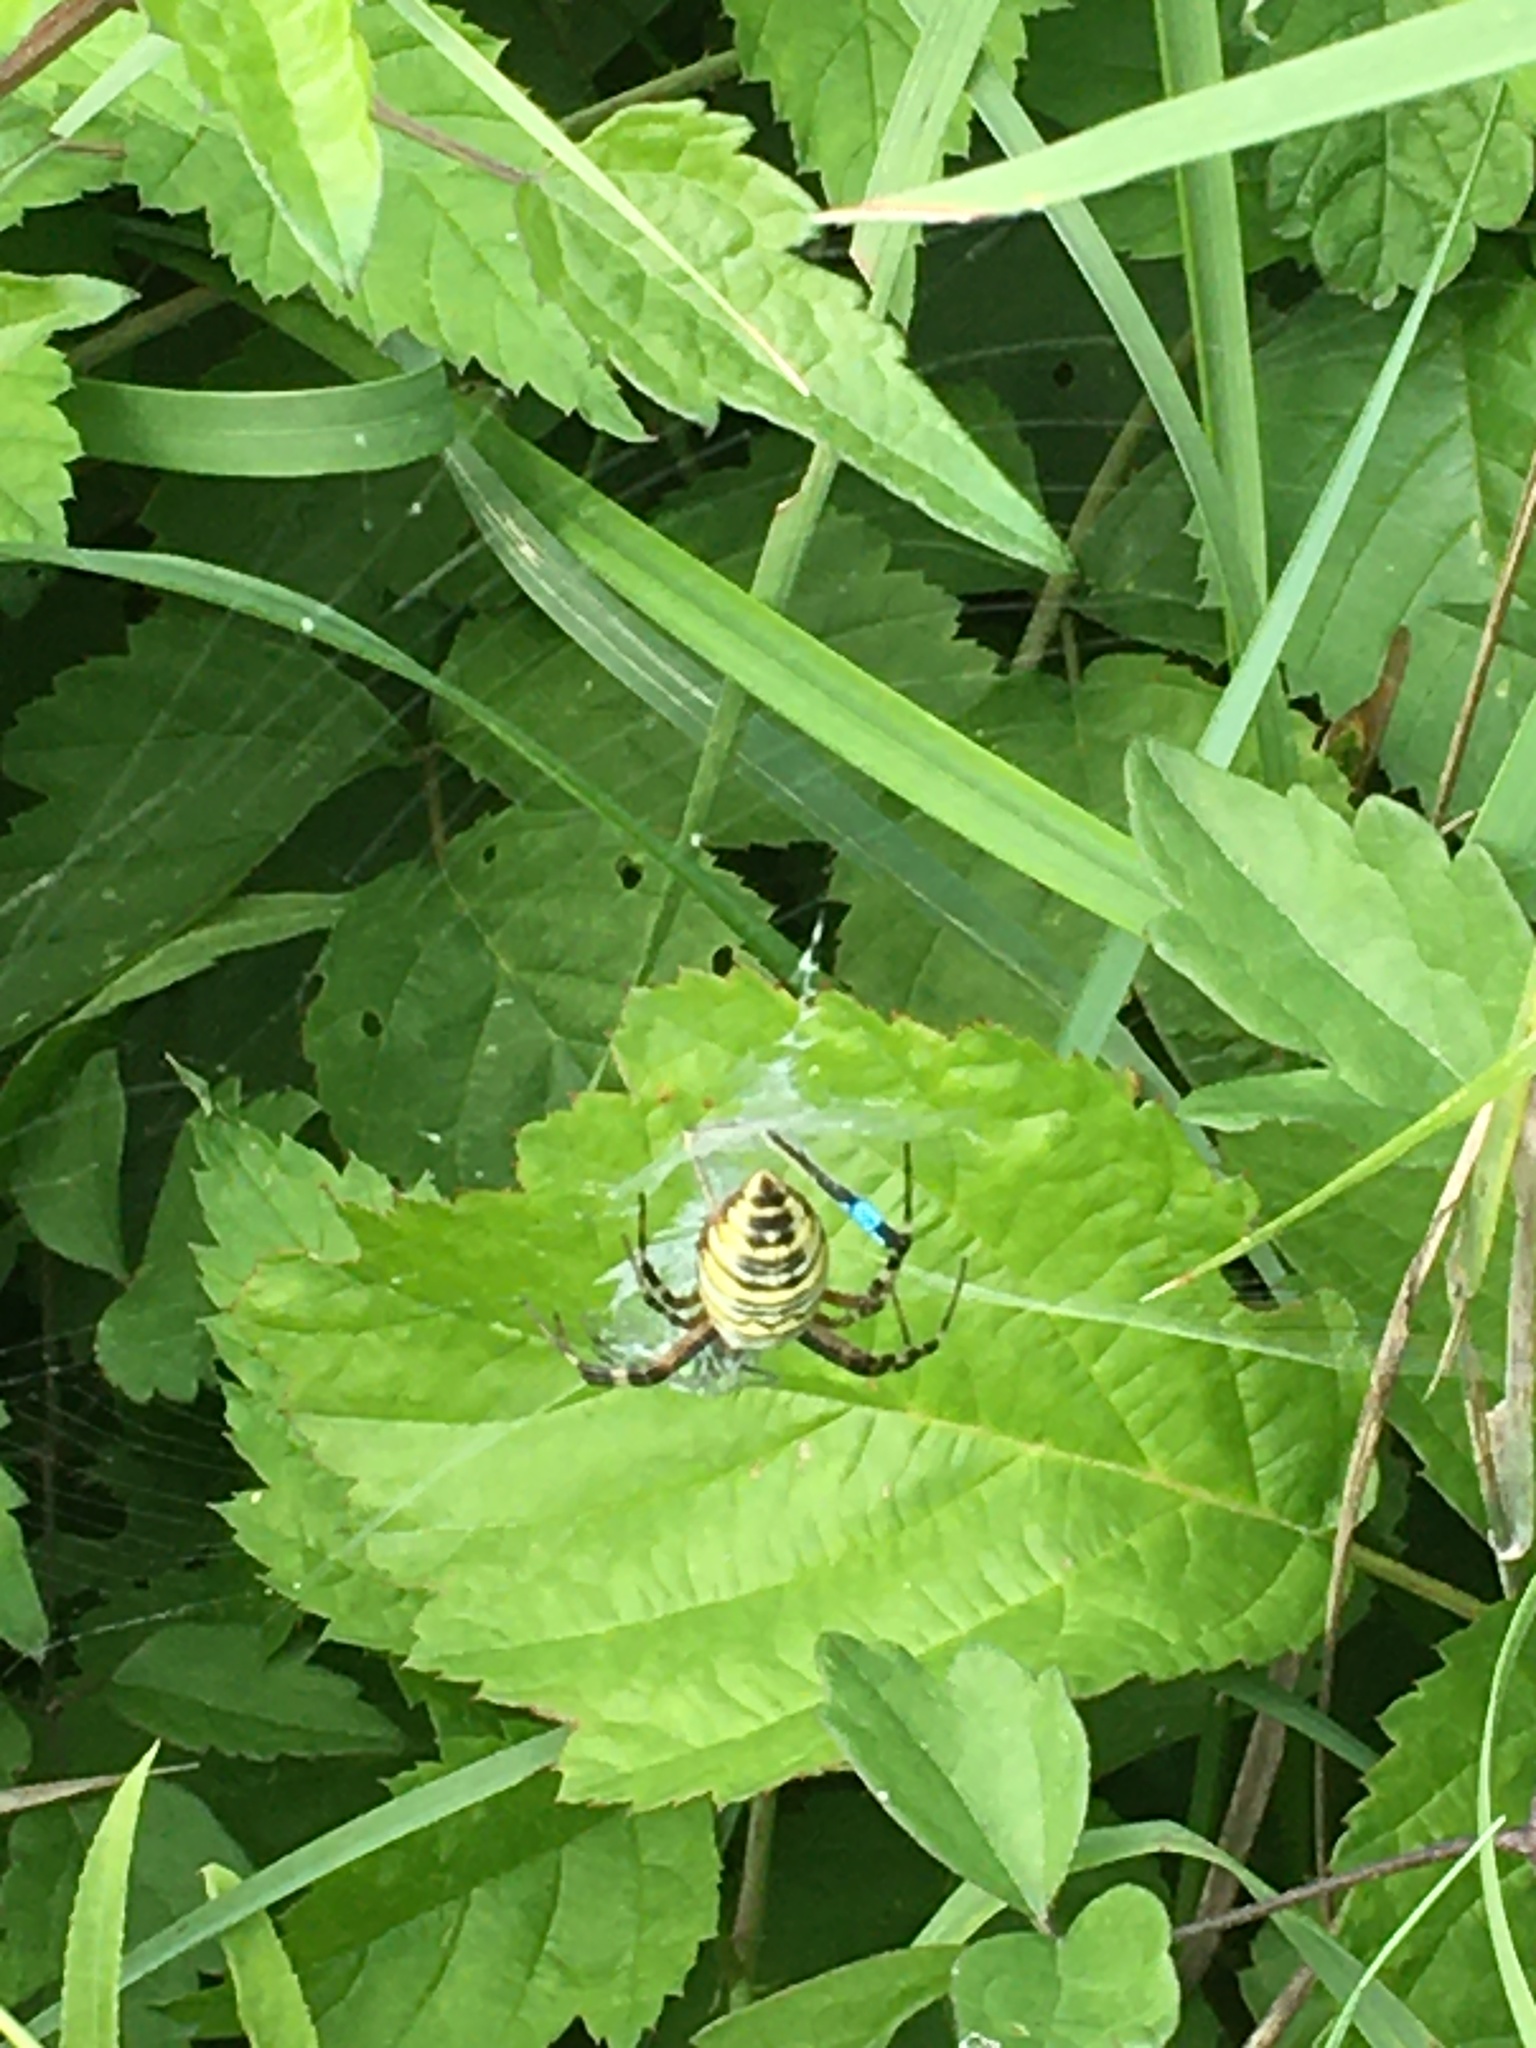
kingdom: Animalia
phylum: Arthropoda
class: Arachnida
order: Araneae
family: Araneidae
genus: Argiope
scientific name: Argiope bruennichi
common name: Wasp spider
